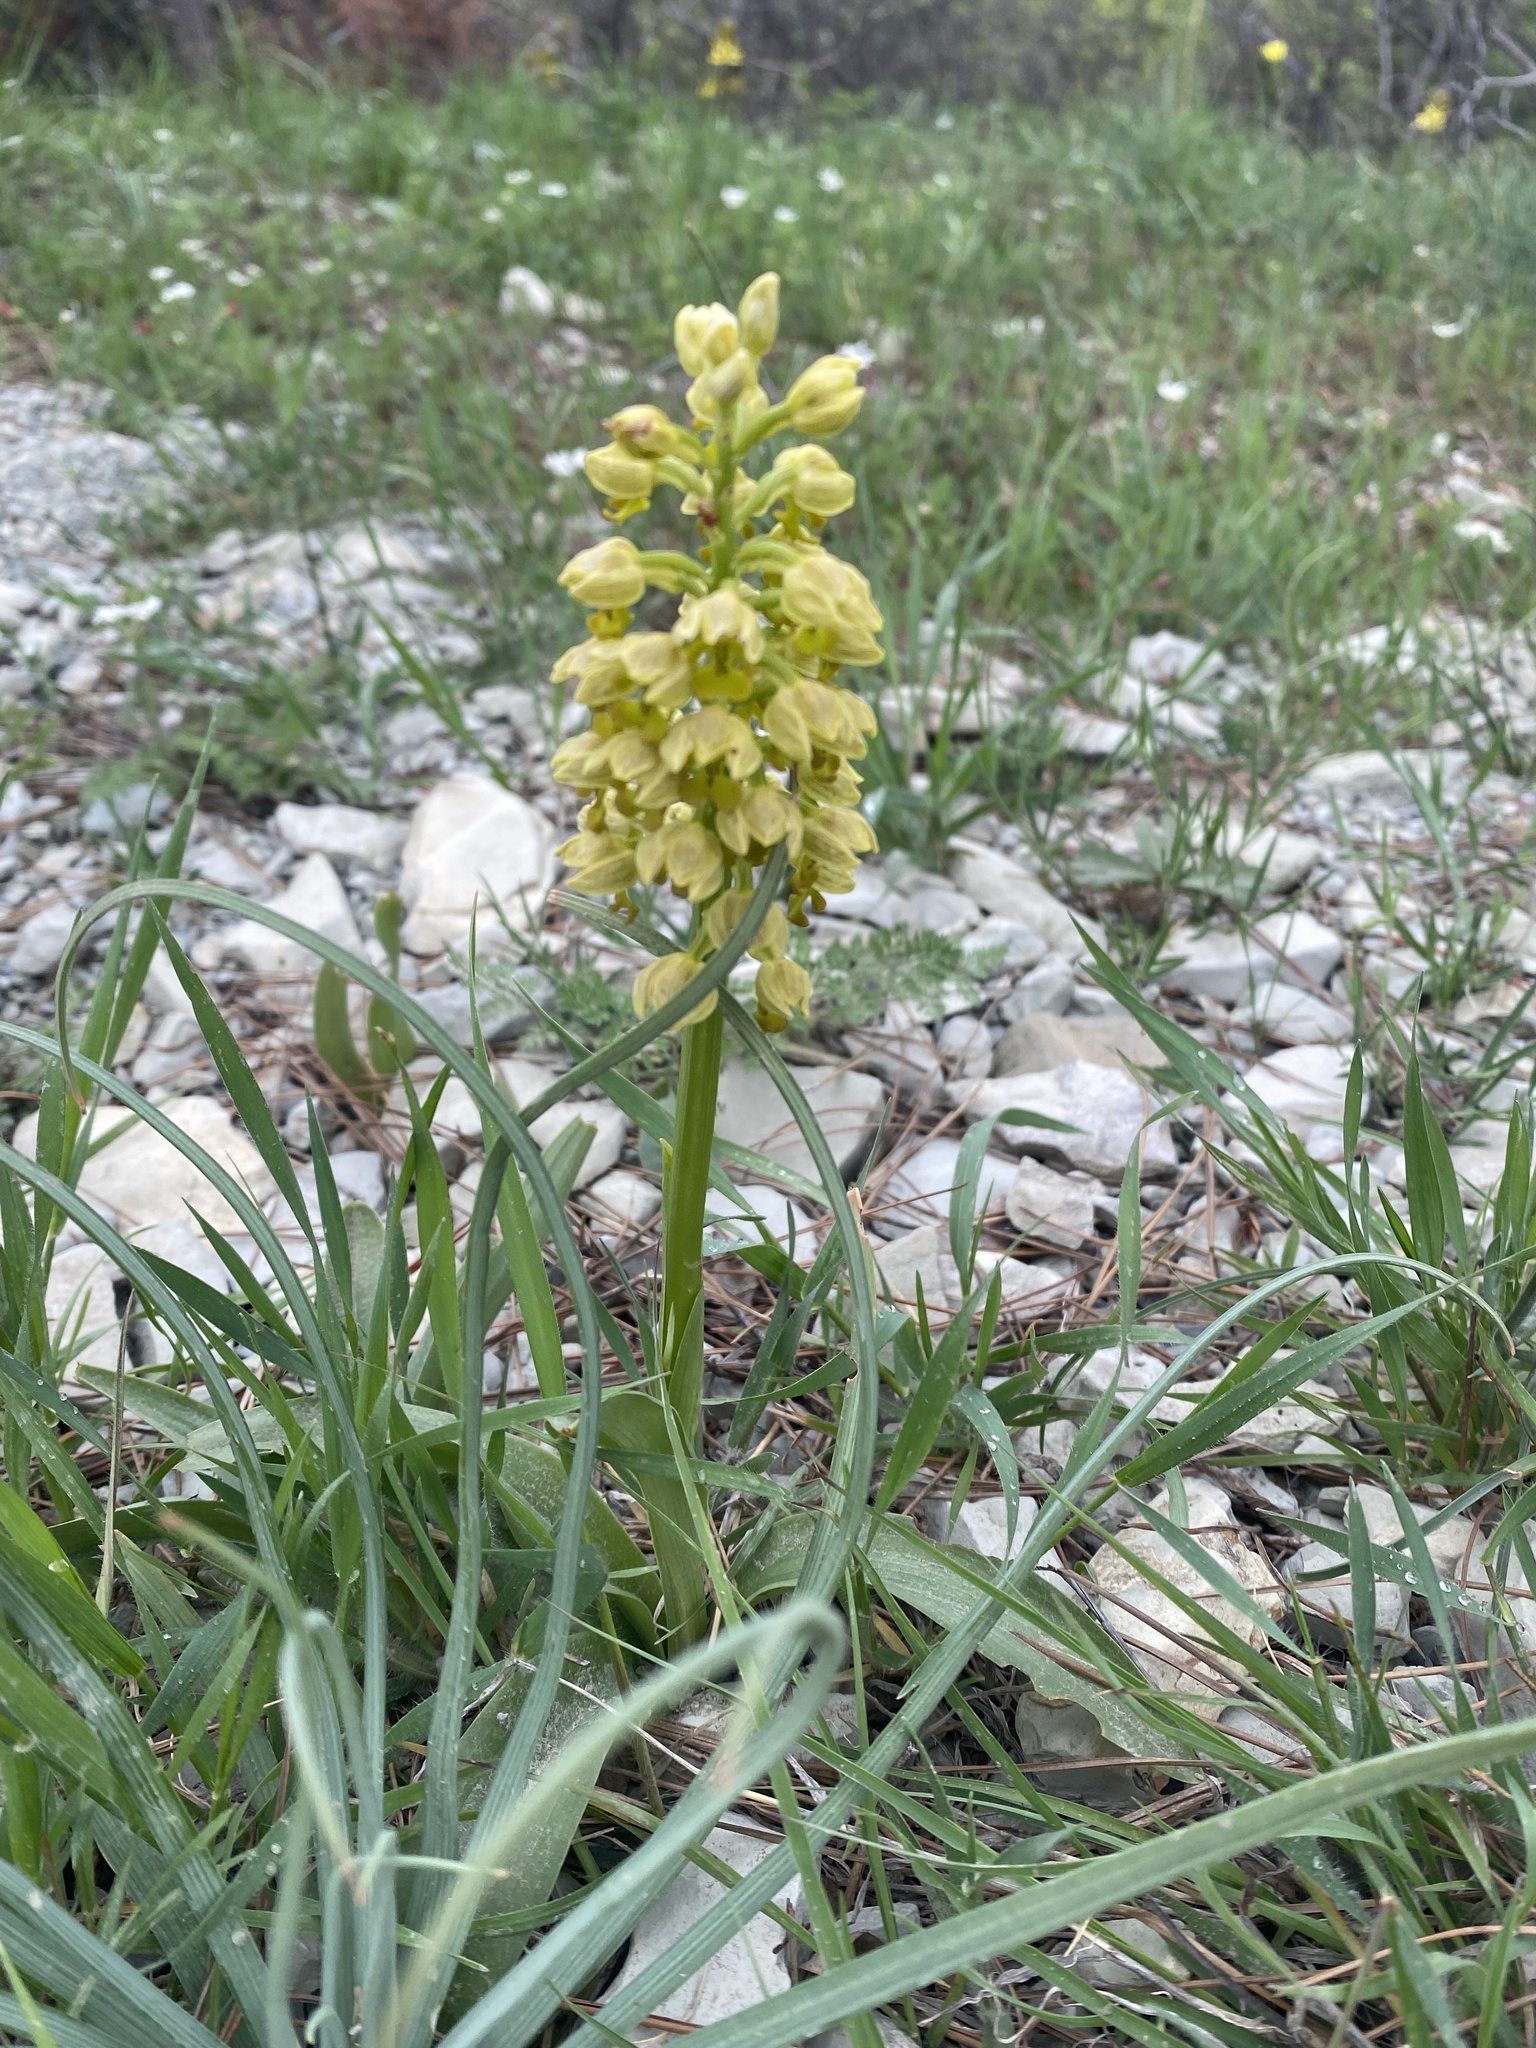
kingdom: Plantae
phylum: Tracheophyta
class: Liliopsida
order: Asparagales
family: Orchidaceae
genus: Orchis
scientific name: Orchis punctulata
